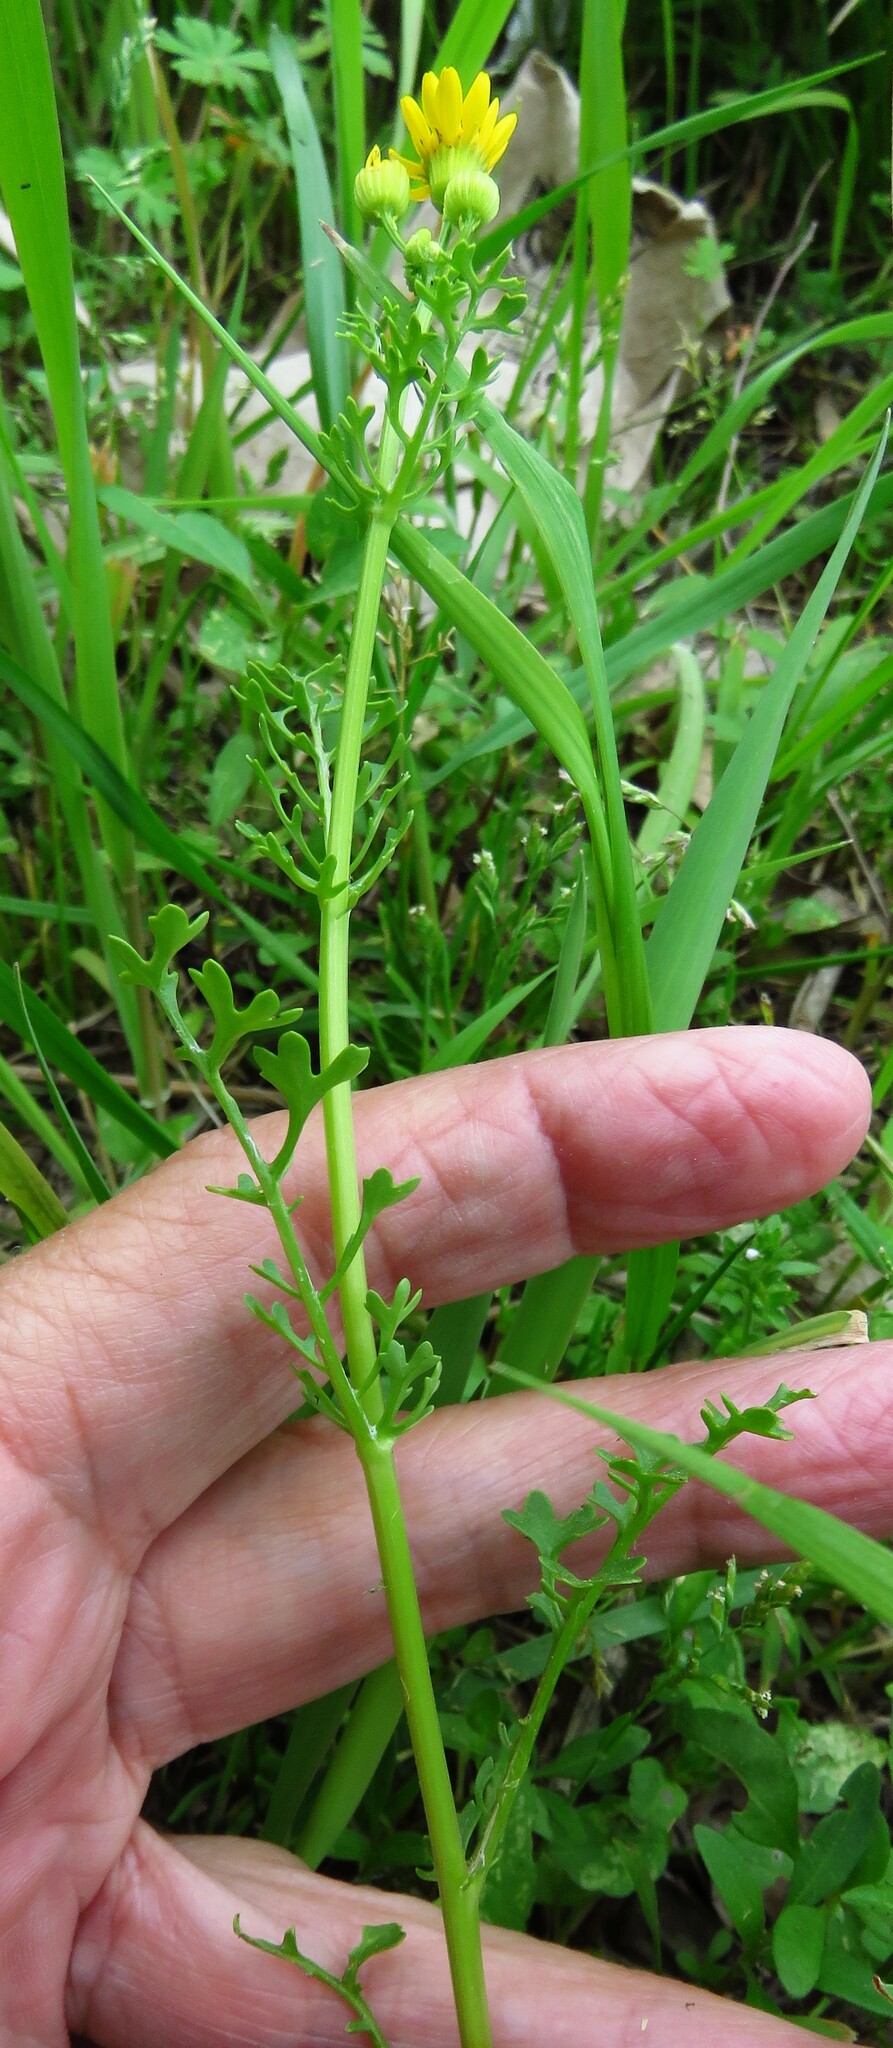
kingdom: Plantae
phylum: Tracheophyta
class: Magnoliopsida
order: Asterales
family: Asteraceae
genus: Packera
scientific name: Packera tampicana
